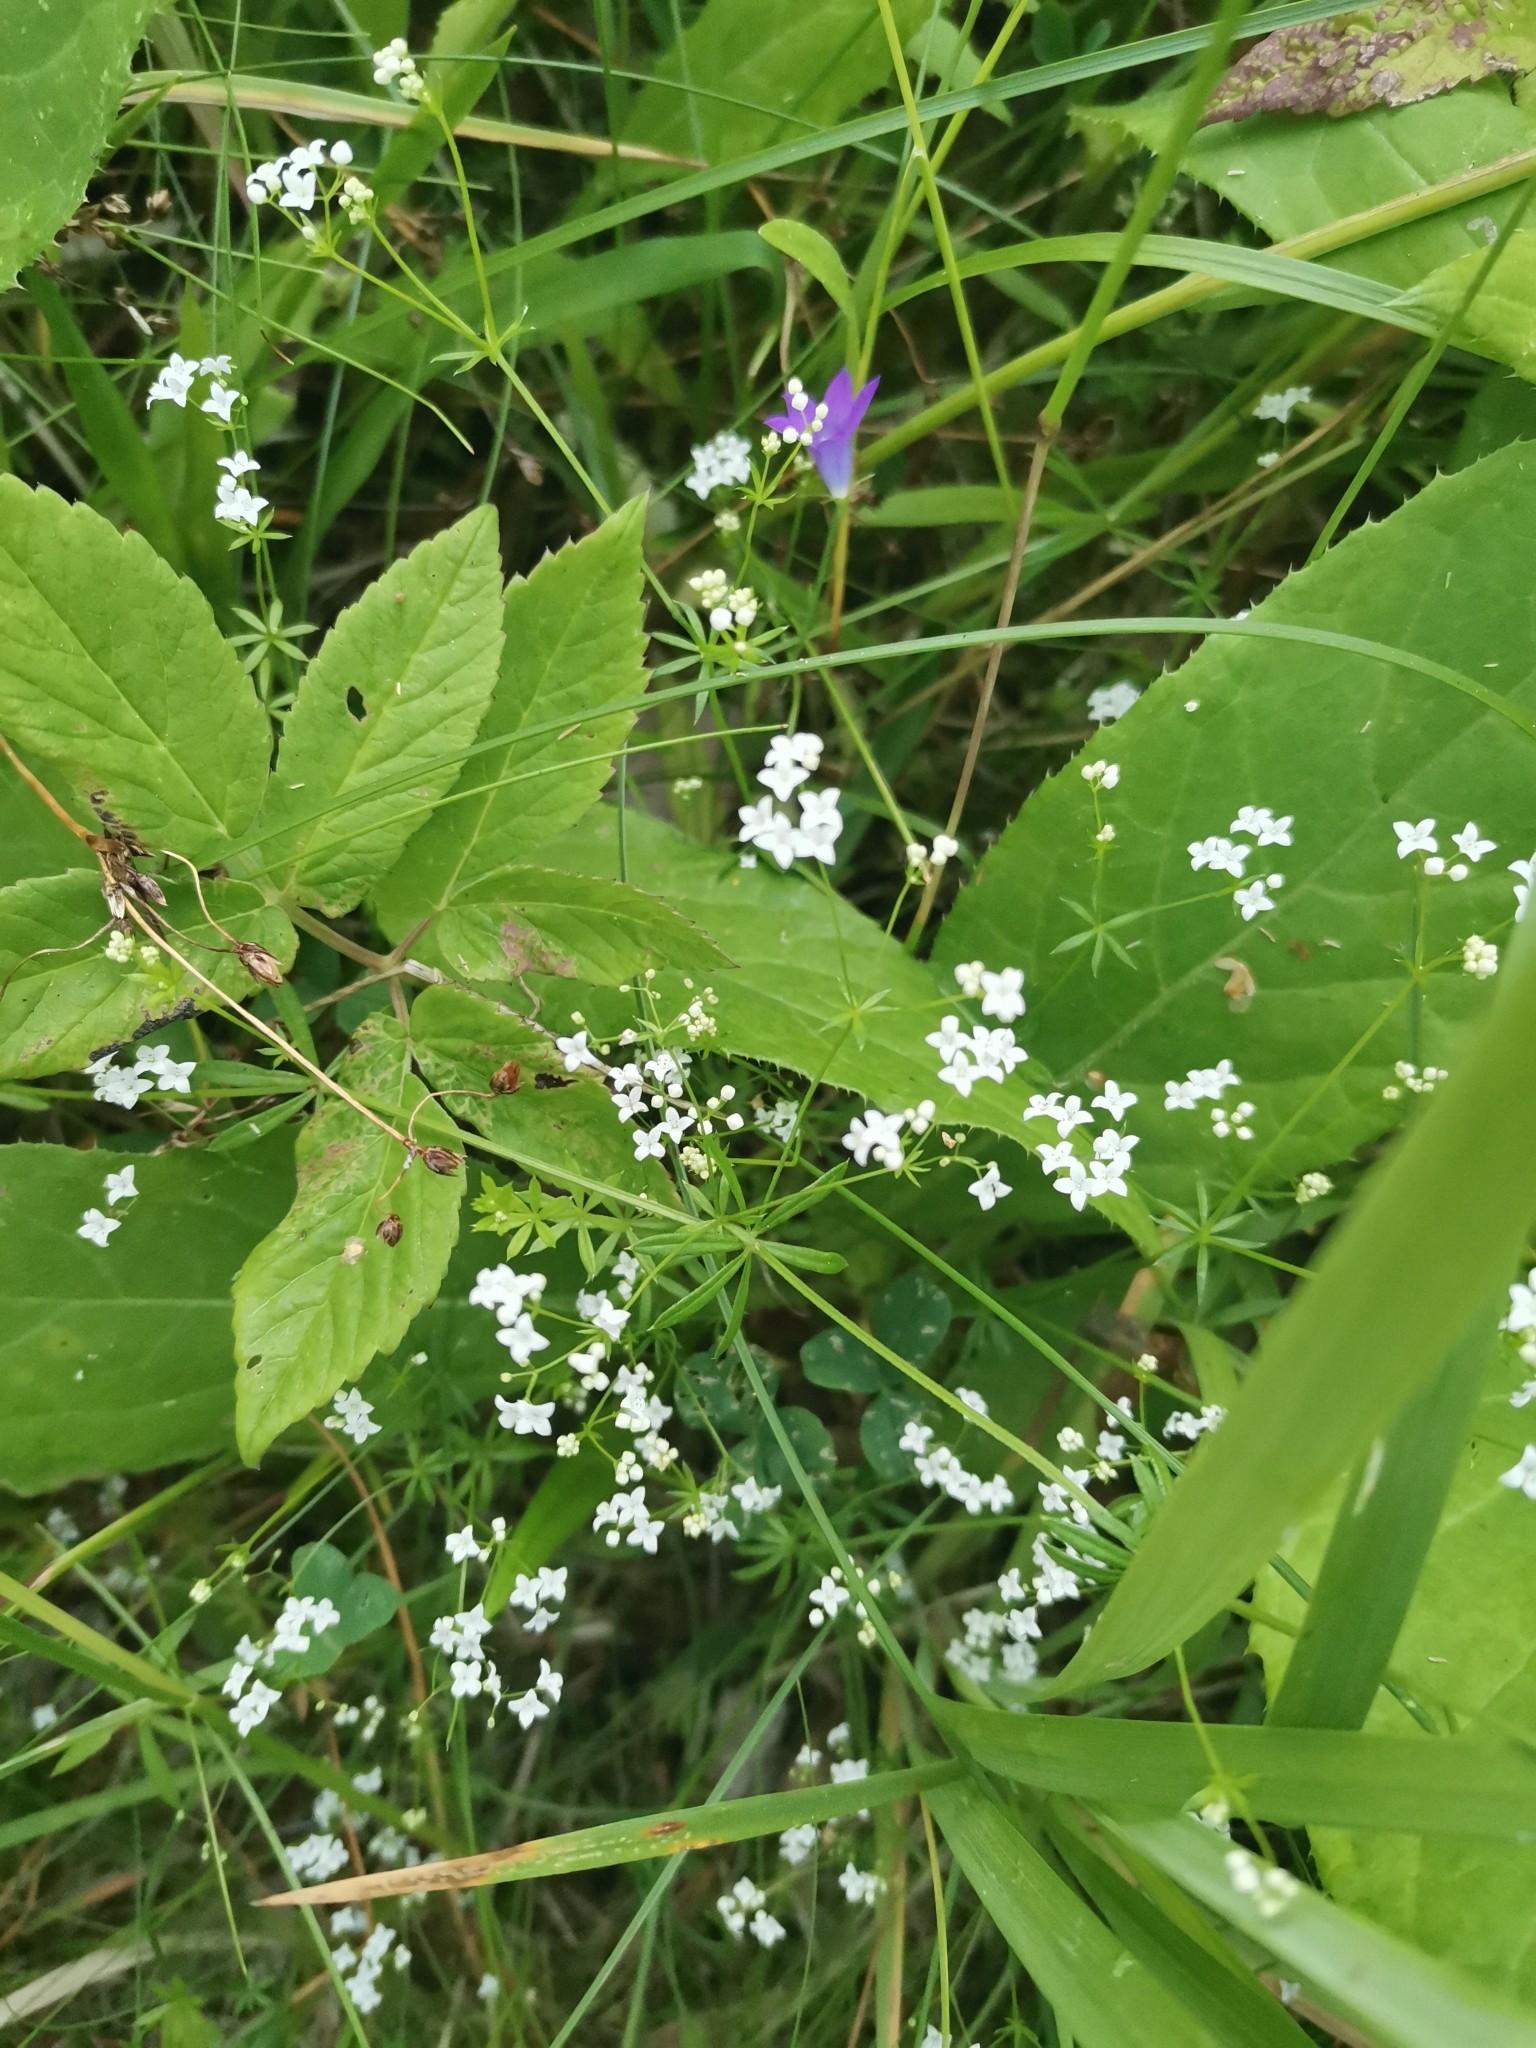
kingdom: Plantae
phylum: Tracheophyta
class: Magnoliopsida
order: Gentianales
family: Rubiaceae
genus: Galium
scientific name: Galium palustre
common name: Common marsh-bedstraw
